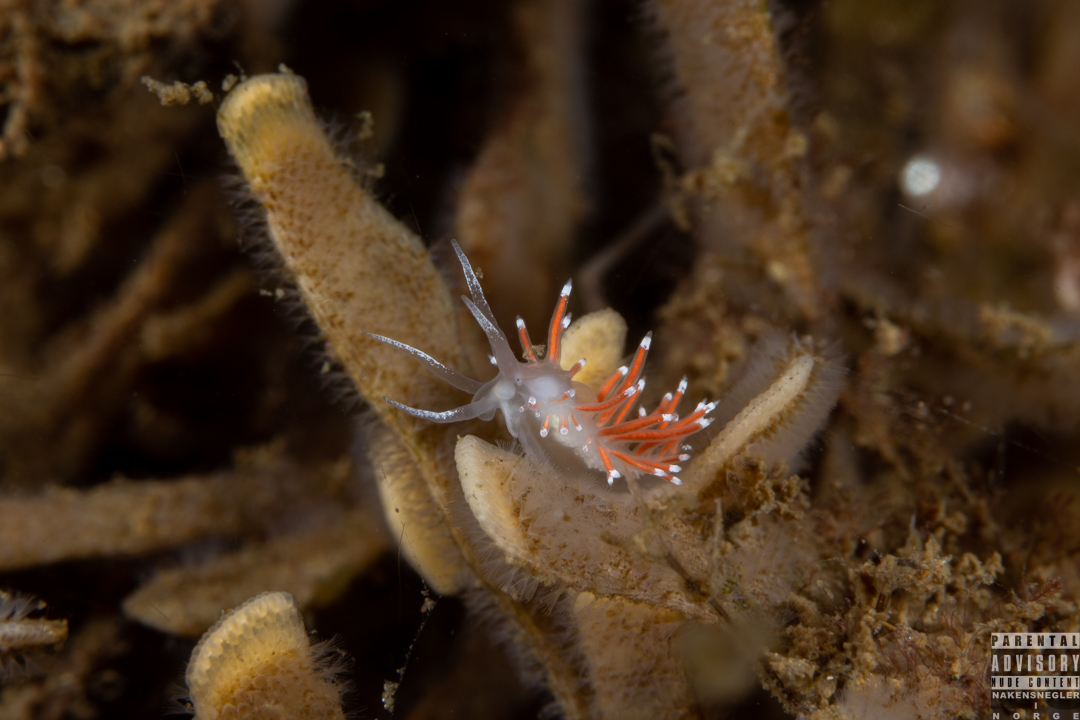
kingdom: Animalia
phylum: Mollusca
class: Gastropoda
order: Nudibranchia
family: Coryphellidae
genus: Coryphella
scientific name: Coryphella gracilis
